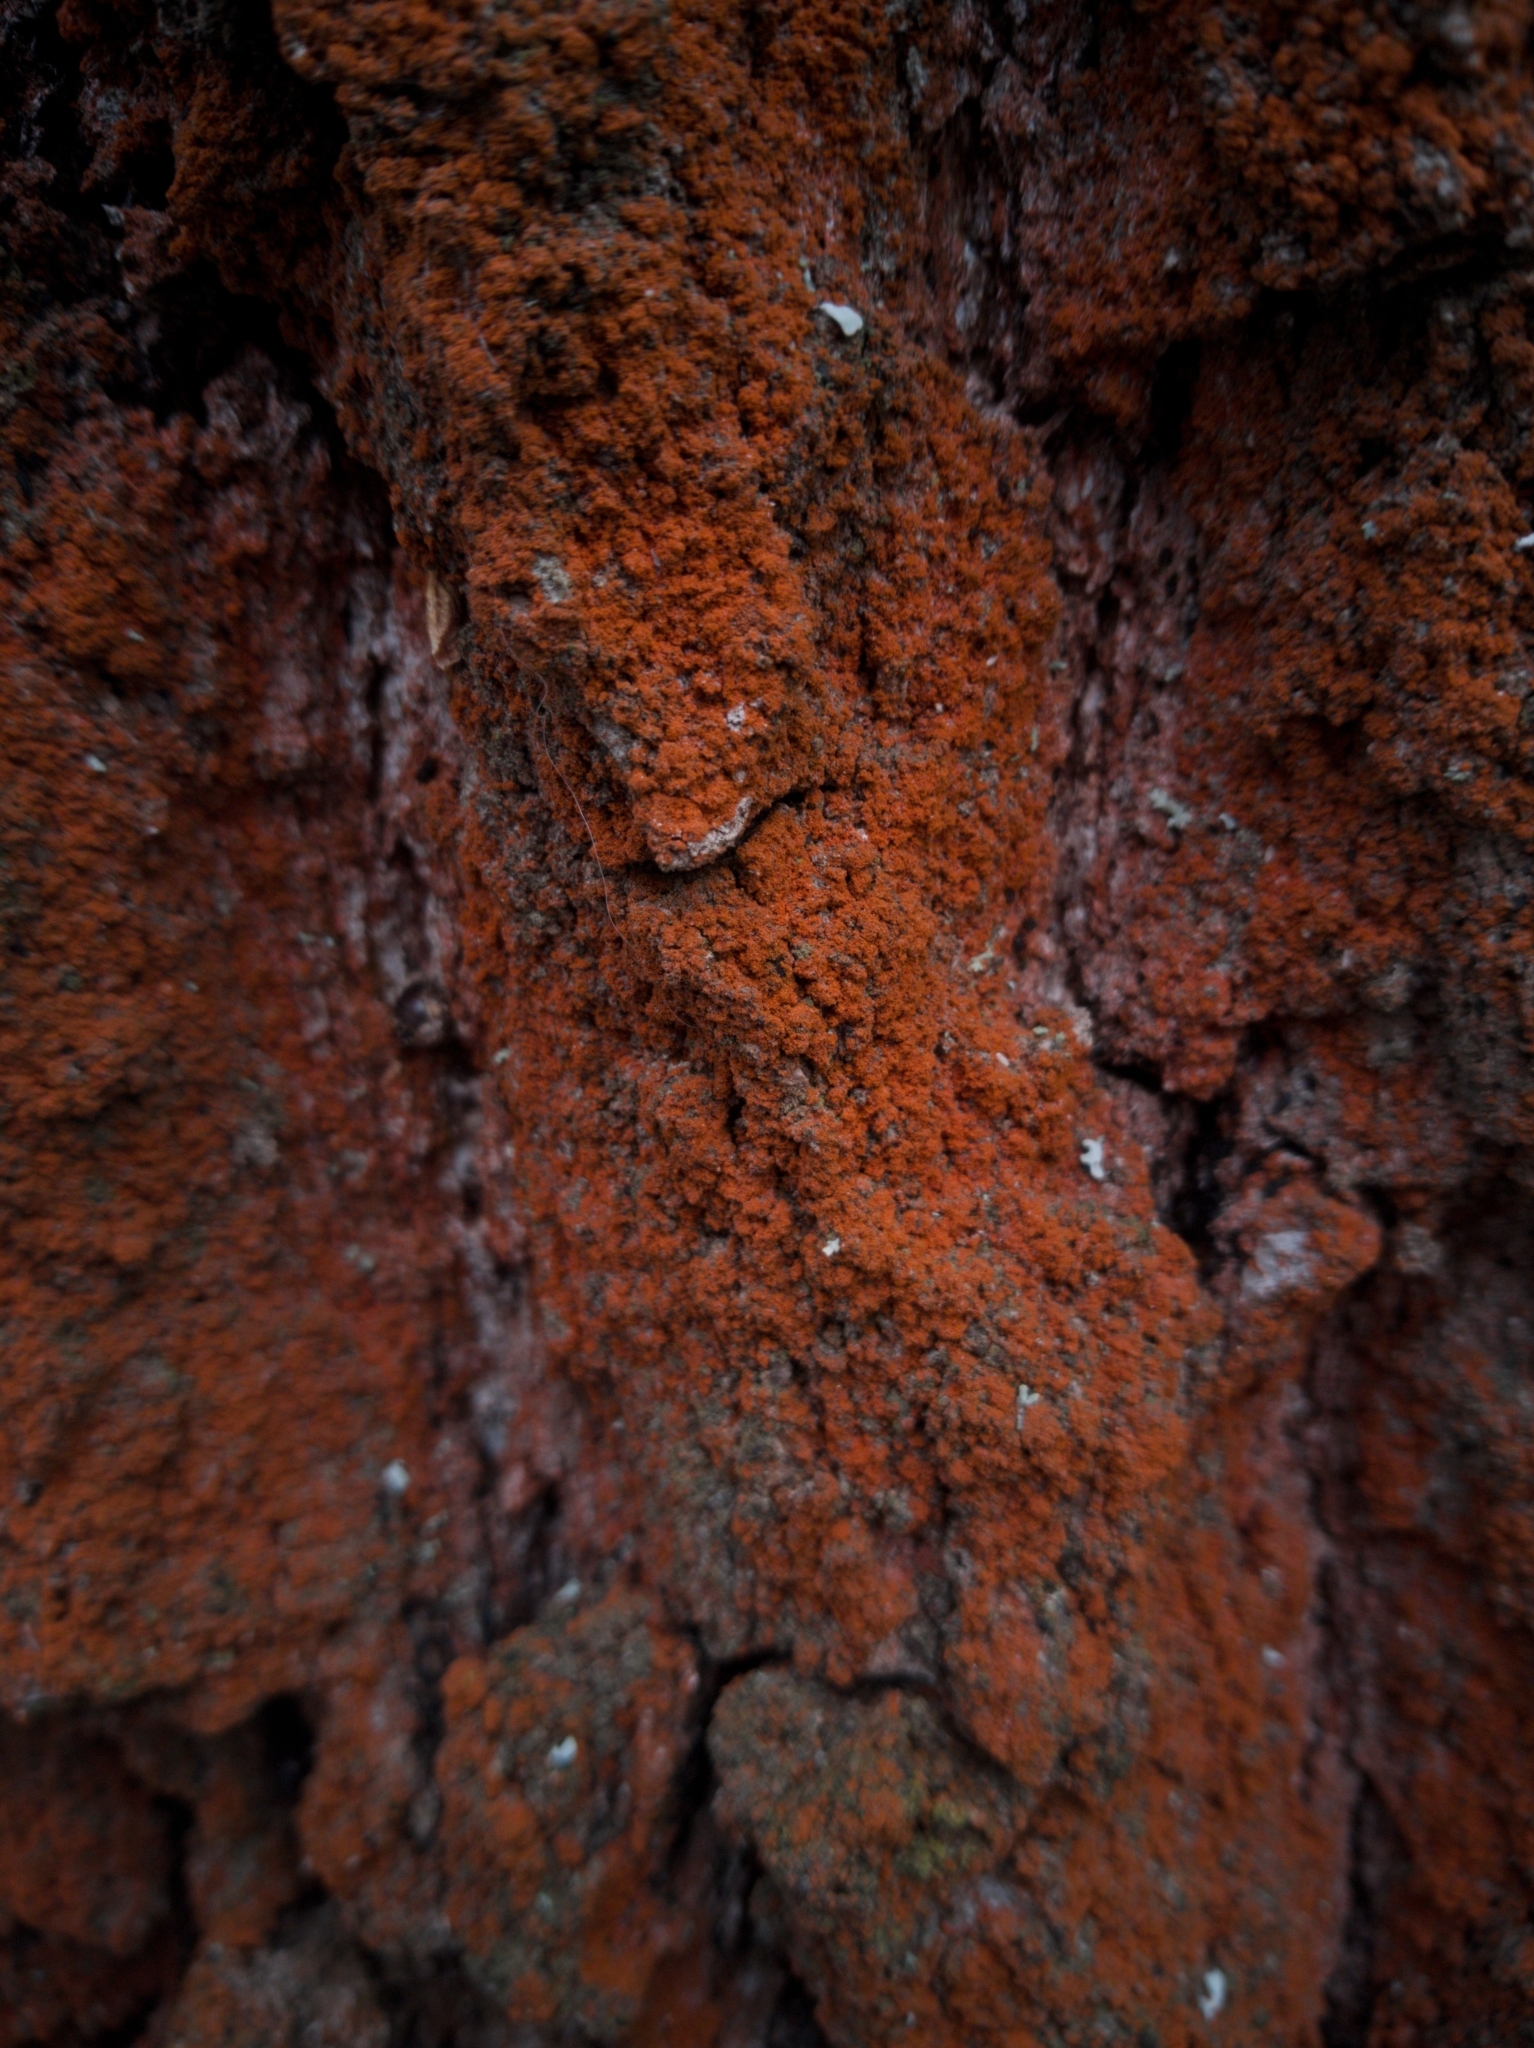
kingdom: Plantae
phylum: Chlorophyta
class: Ulvophyceae
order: Trentepohliales
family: Trentepohliaceae
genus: Trentepohlia
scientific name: Trentepohlia
